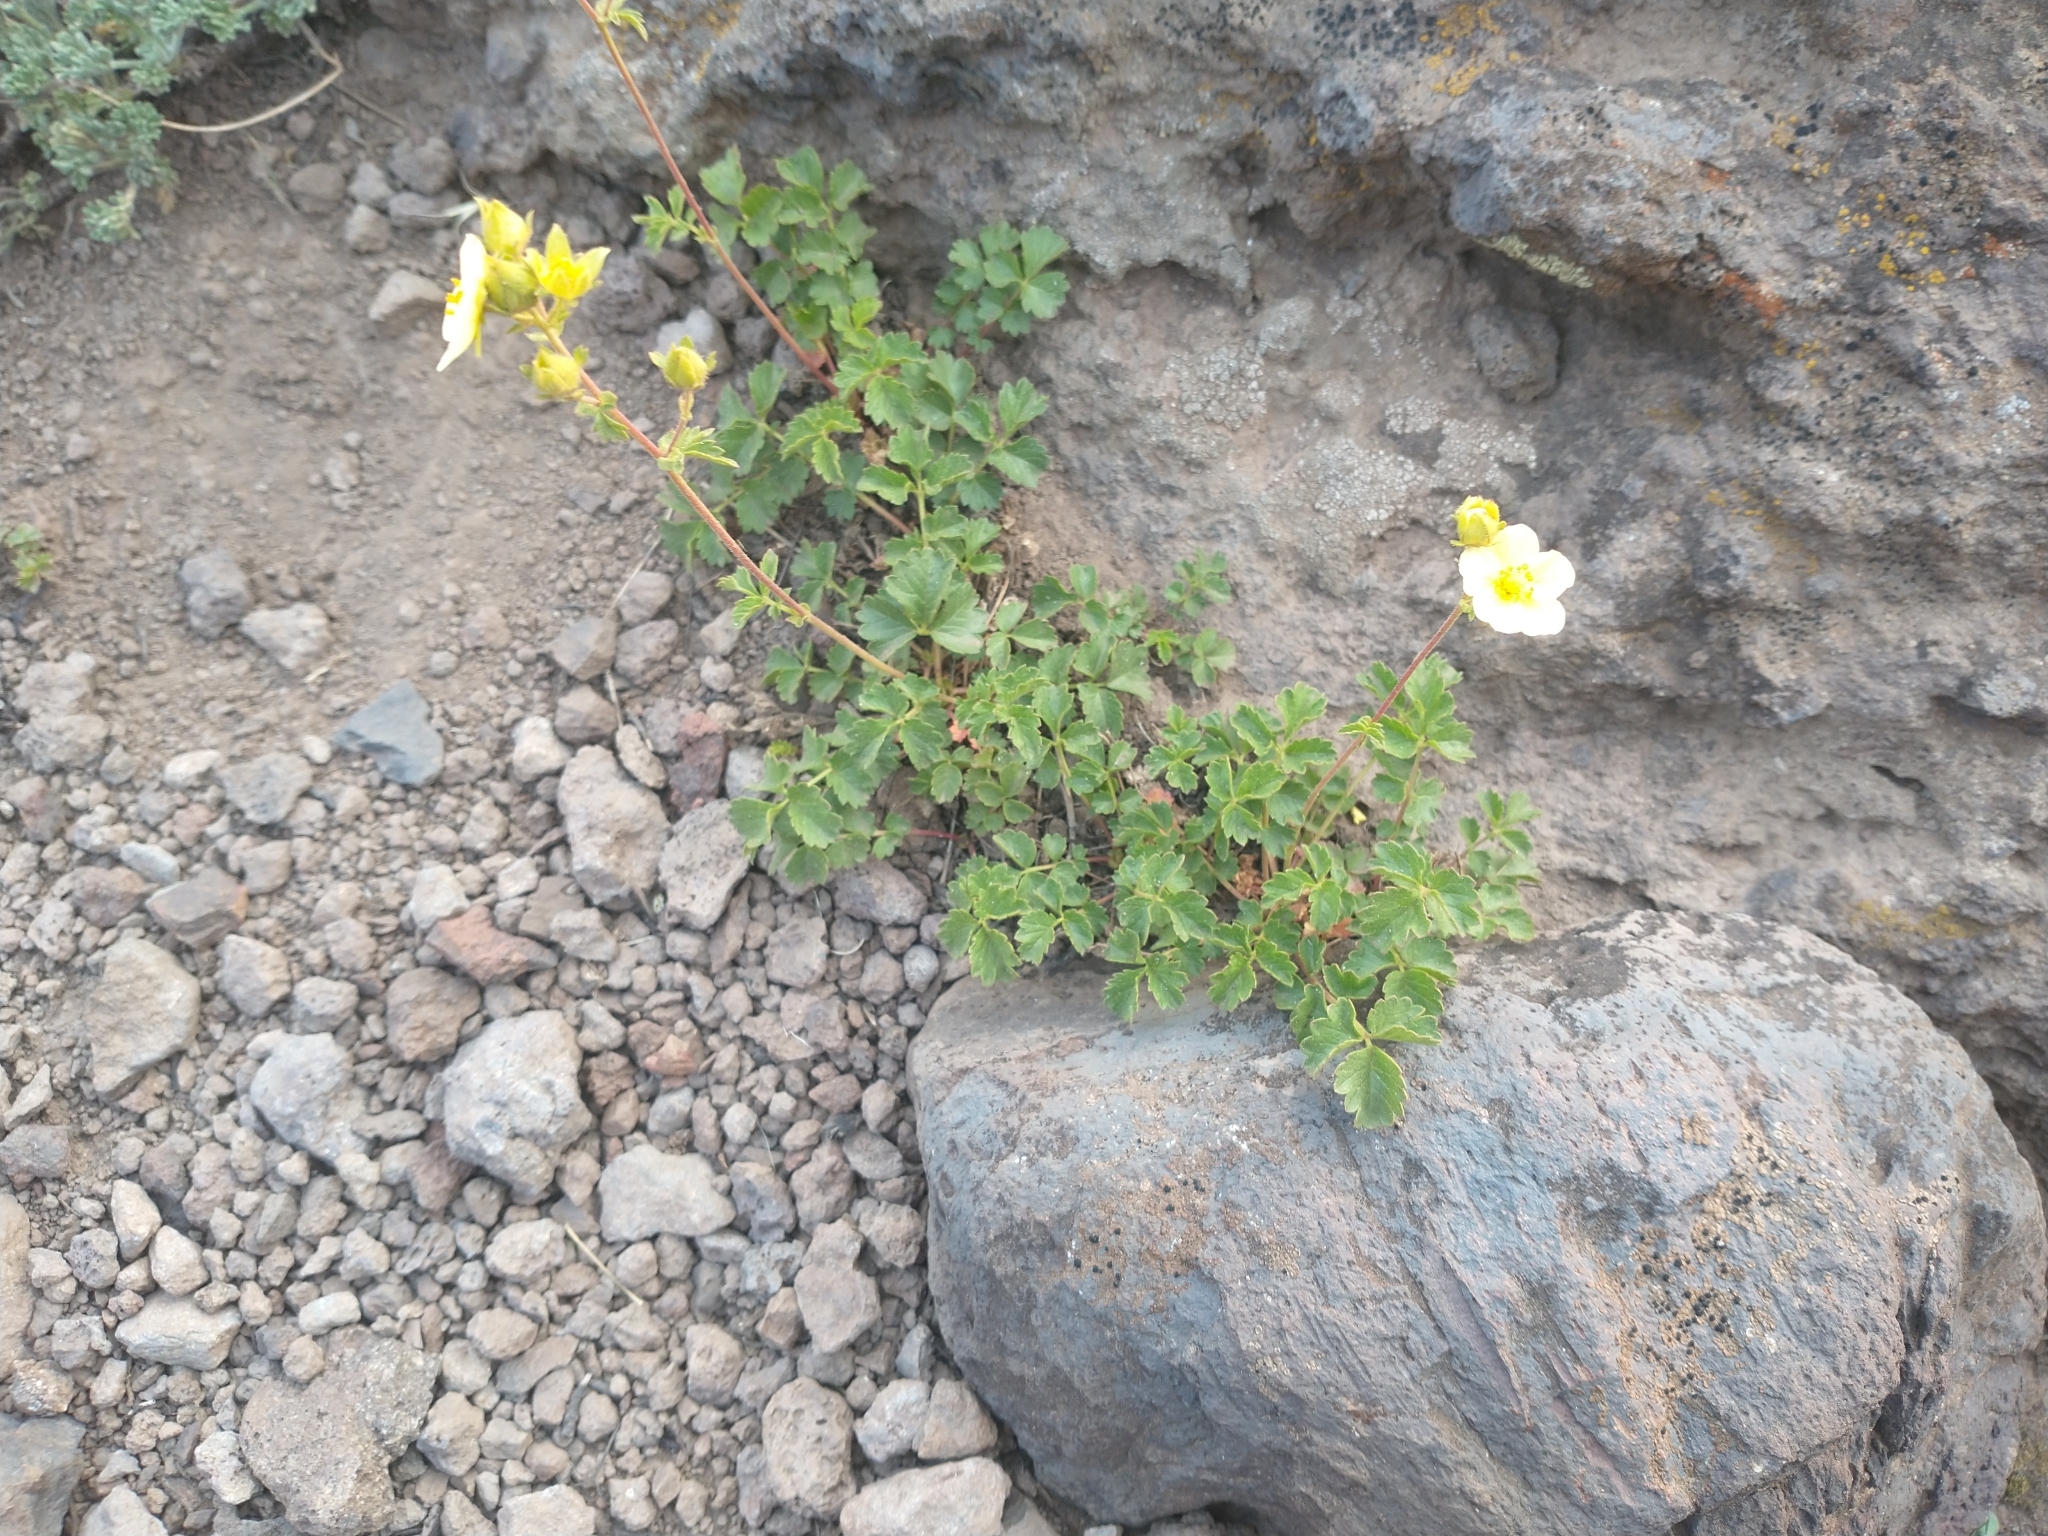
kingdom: Plantae
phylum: Tracheophyta
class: Magnoliopsida
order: Rosales
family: Rosaceae
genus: Drymocallis
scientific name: Drymocallis pseudorupestris
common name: Sticky cinquefoil
